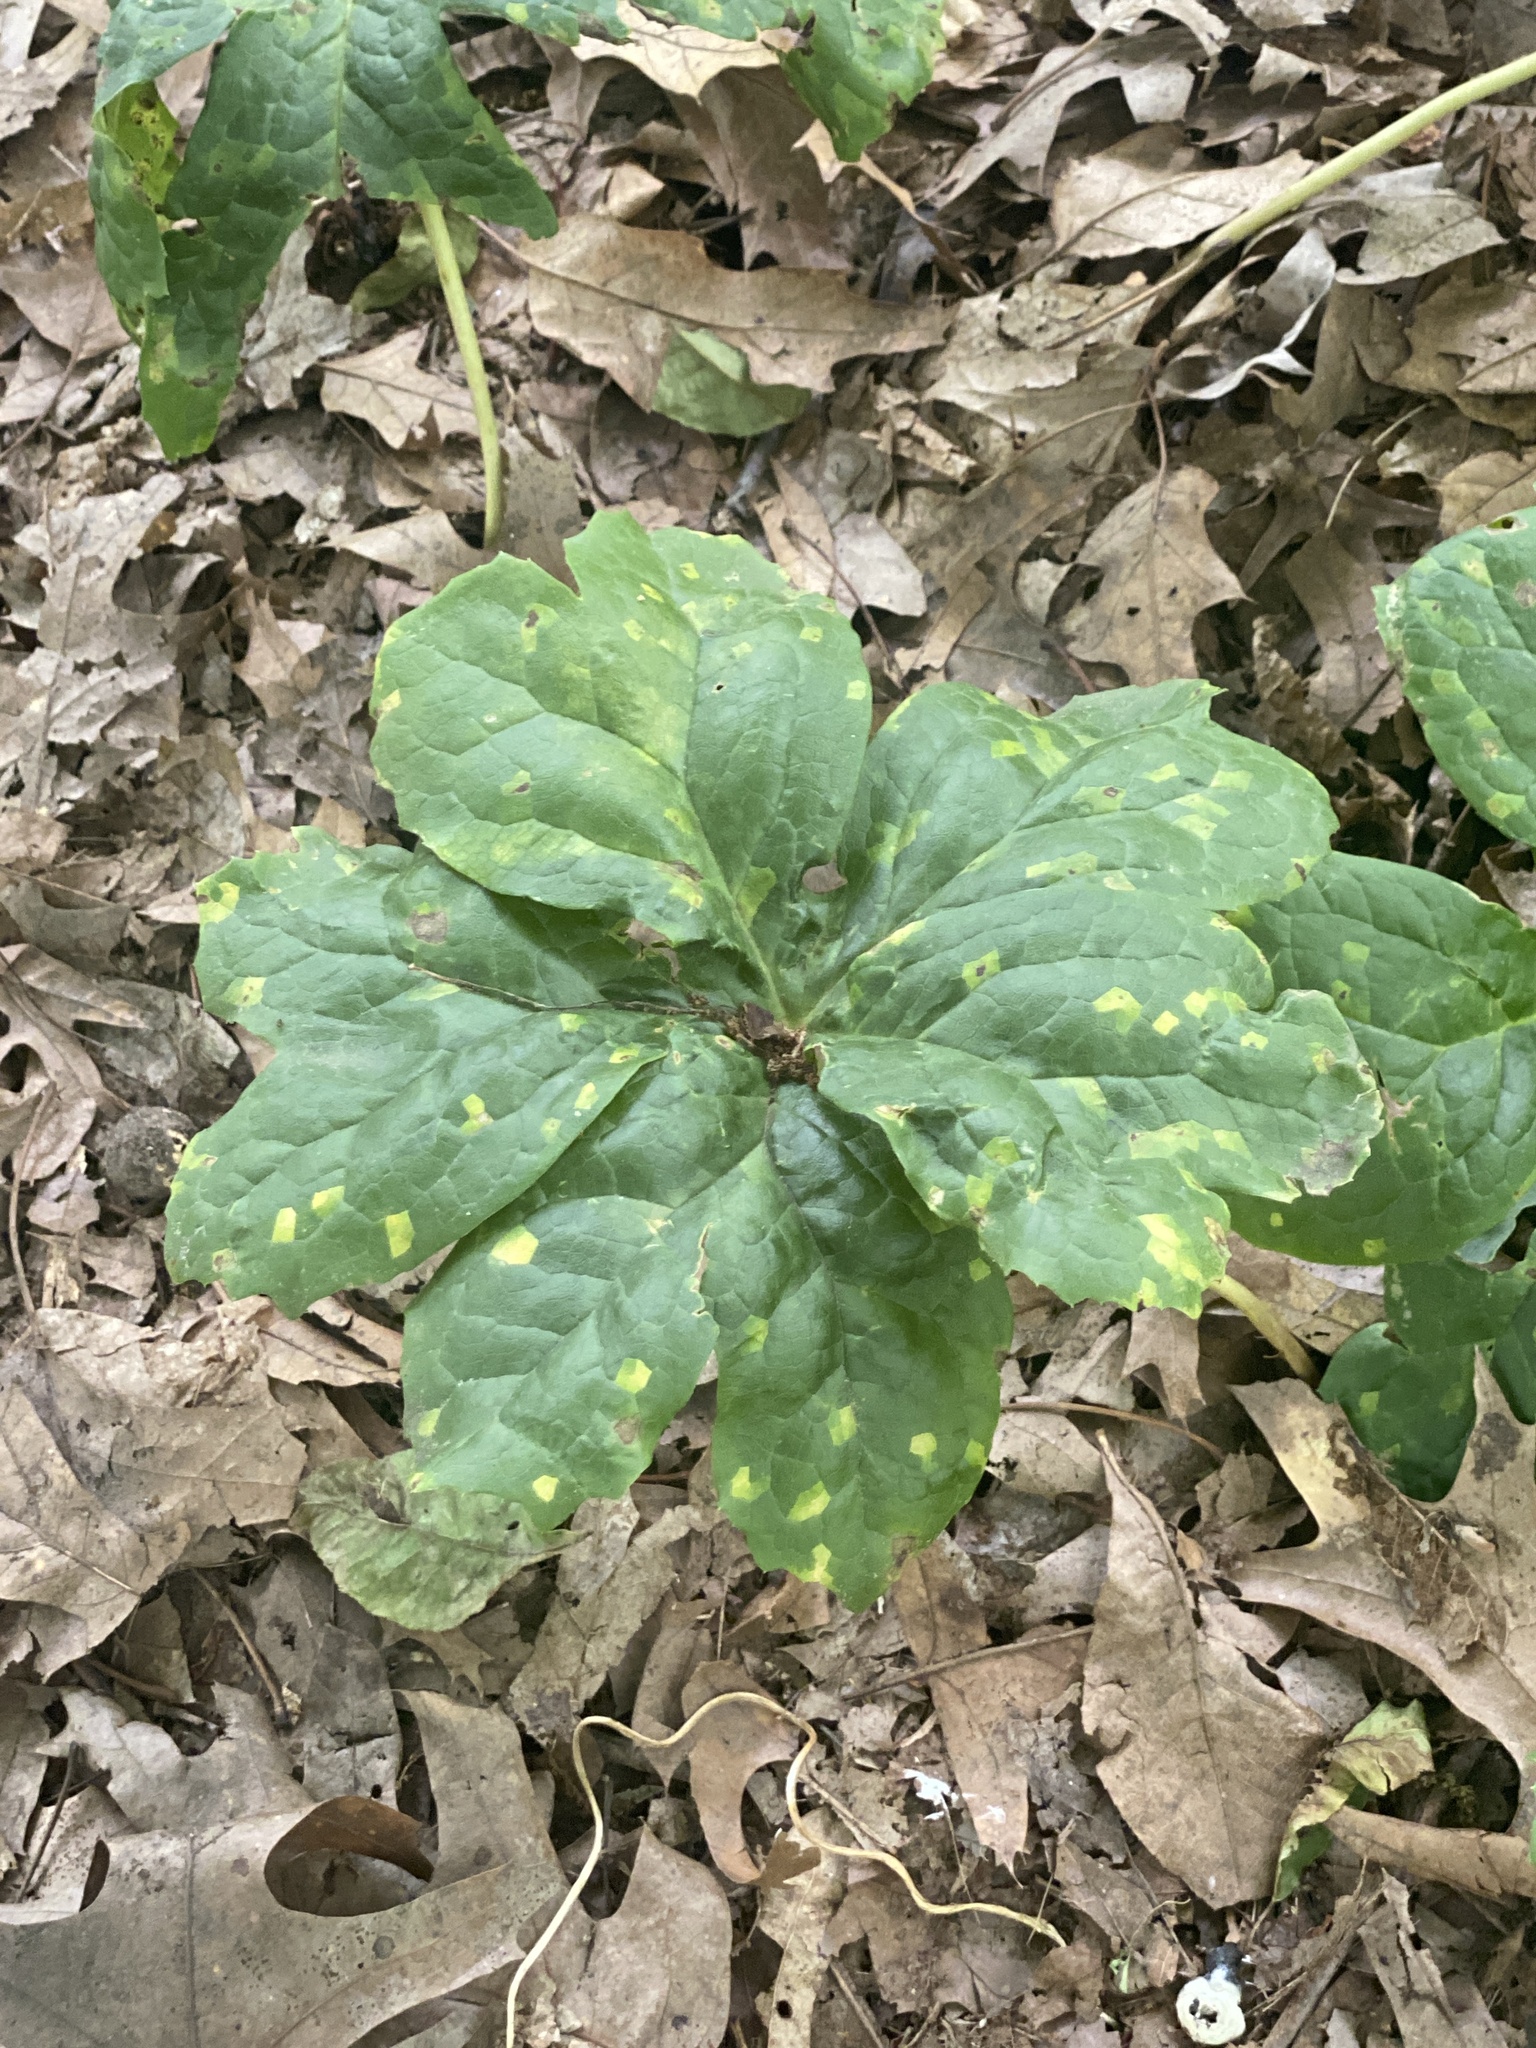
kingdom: Plantae
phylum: Tracheophyta
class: Magnoliopsida
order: Ranunculales
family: Berberidaceae
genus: Podophyllum
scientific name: Podophyllum peltatum
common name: Wild mandrake
